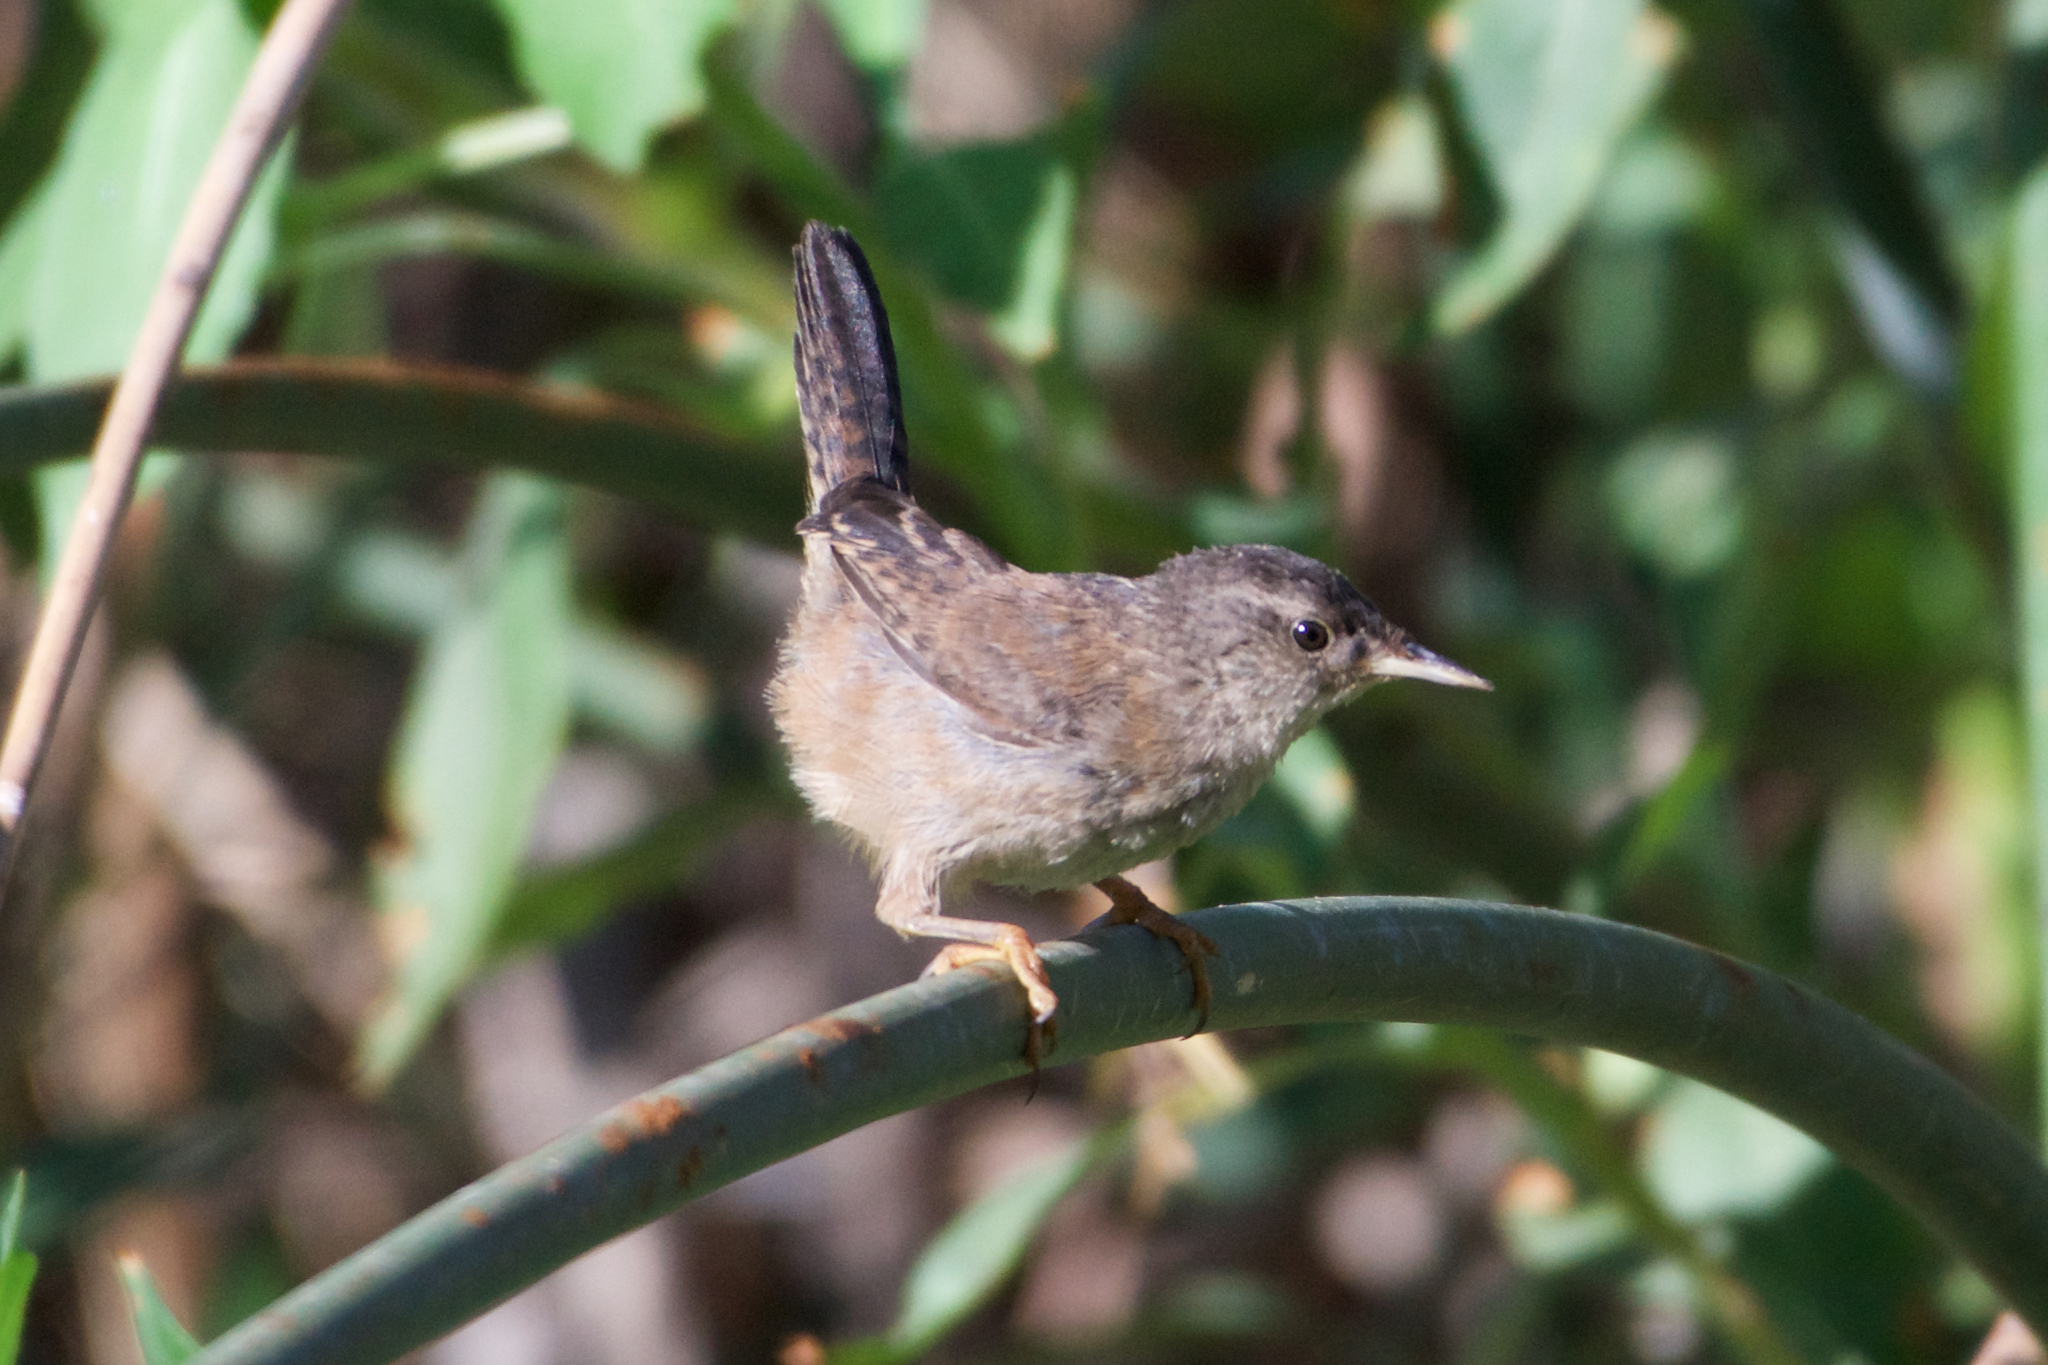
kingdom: Animalia
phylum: Chordata
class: Aves
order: Passeriformes
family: Troglodytidae
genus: Cistothorus
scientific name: Cistothorus palustris
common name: Marsh wren
